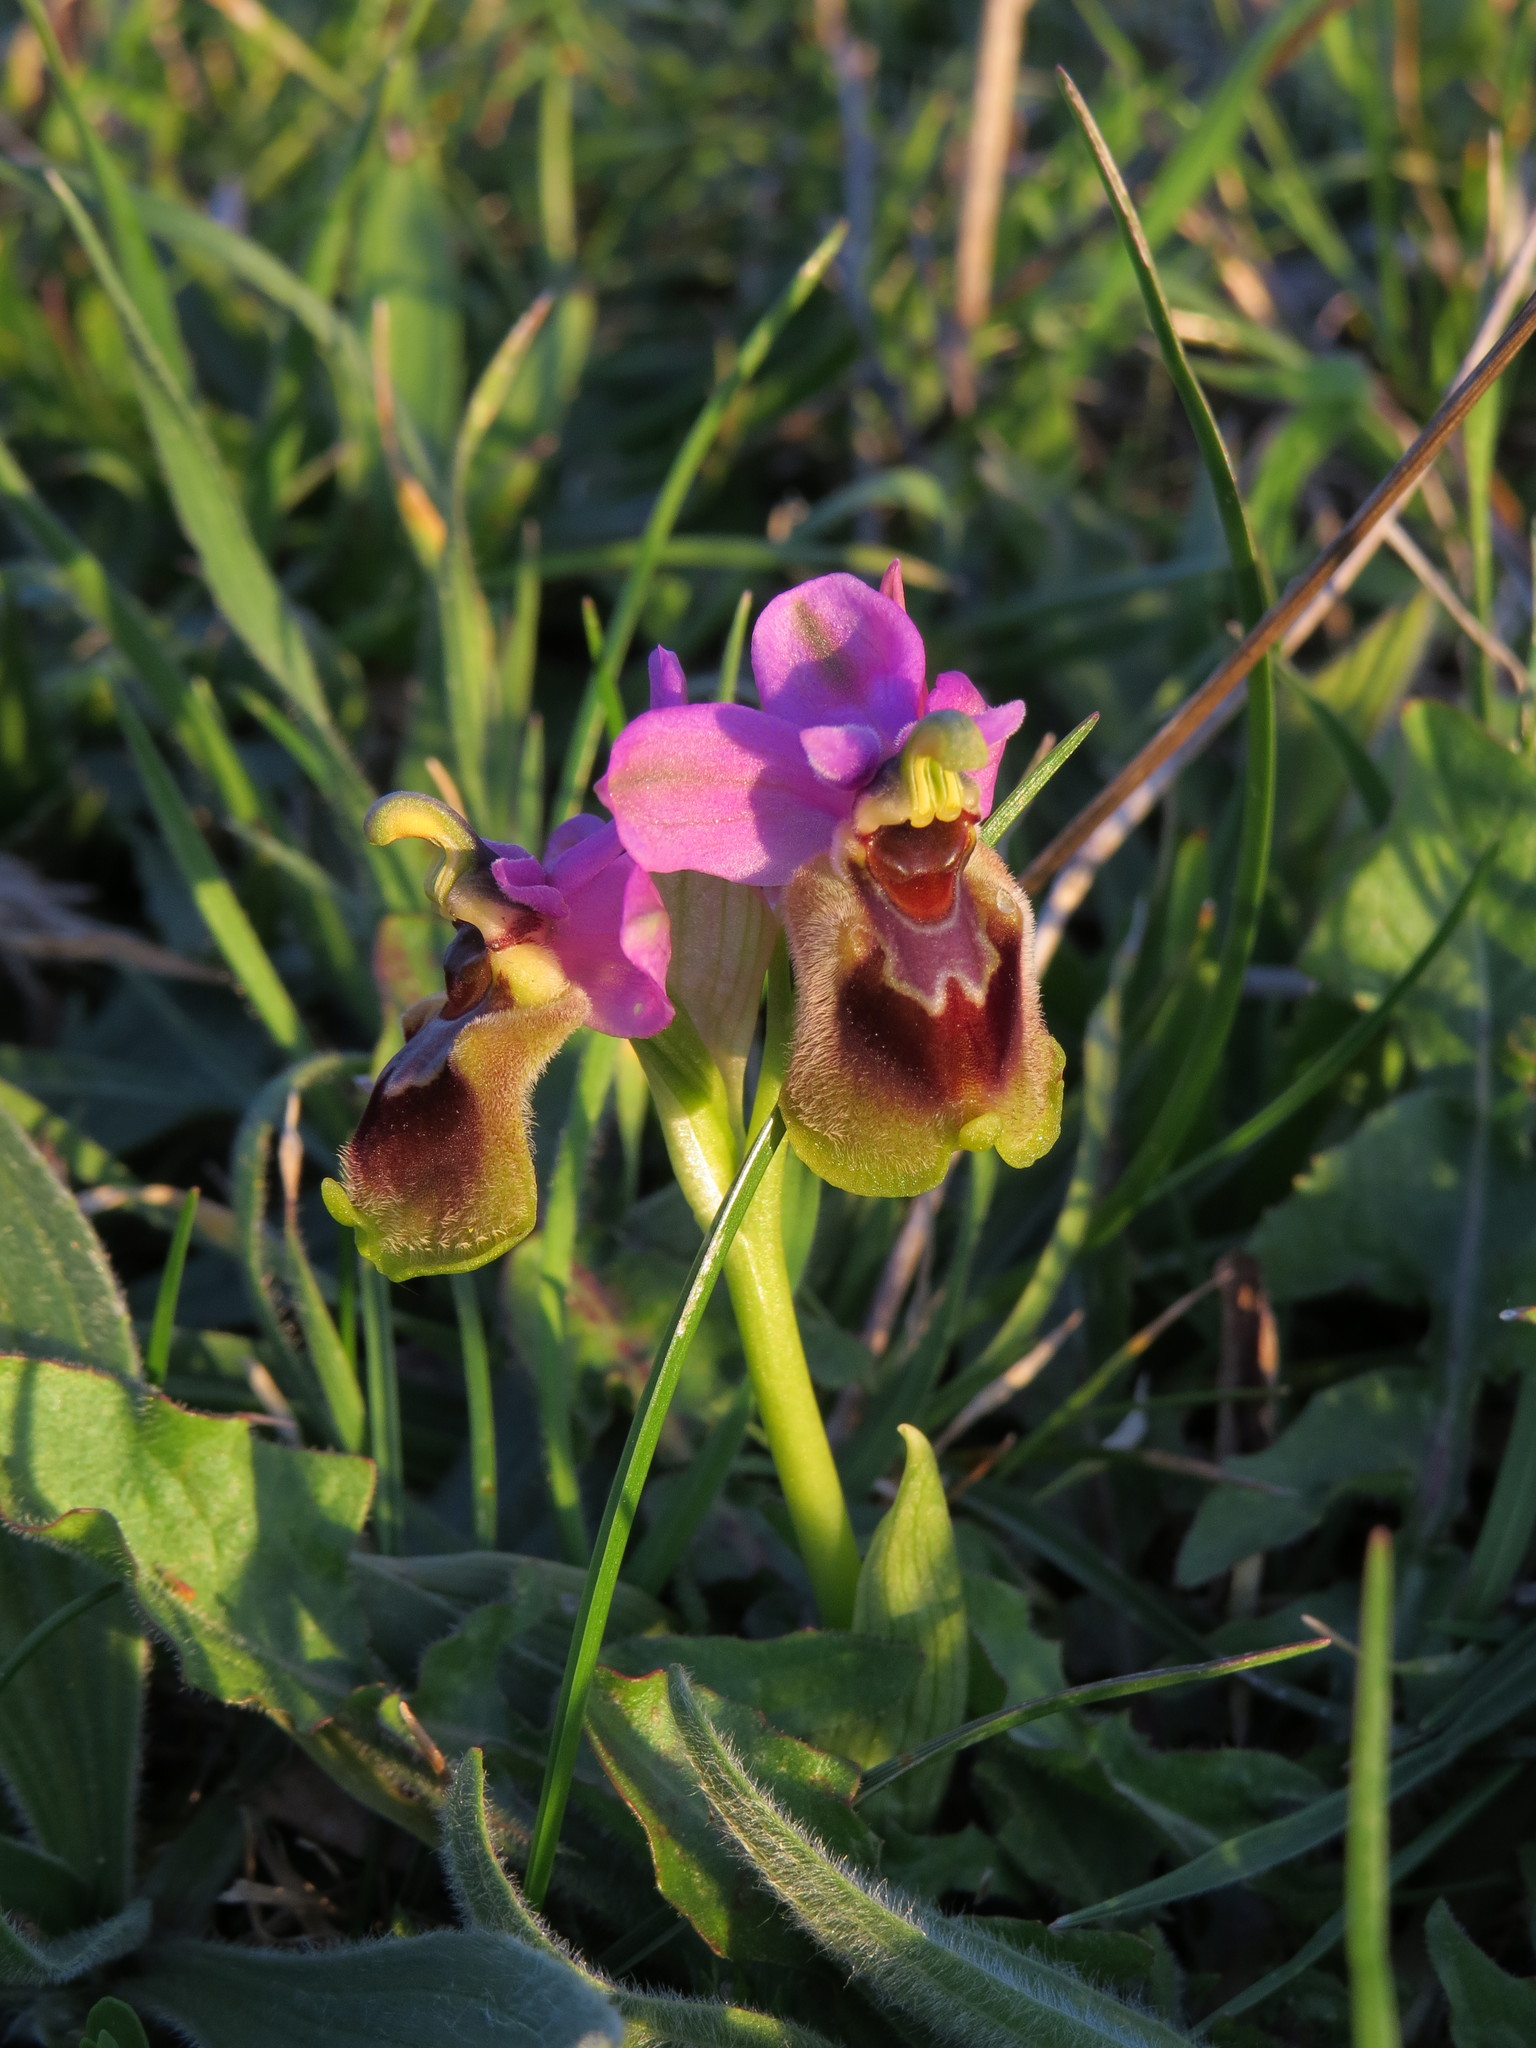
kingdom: Plantae
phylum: Tracheophyta
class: Liliopsida
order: Asparagales
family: Orchidaceae
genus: Ophrys
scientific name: Ophrys tenthredinifera
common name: Sawfly orchid
